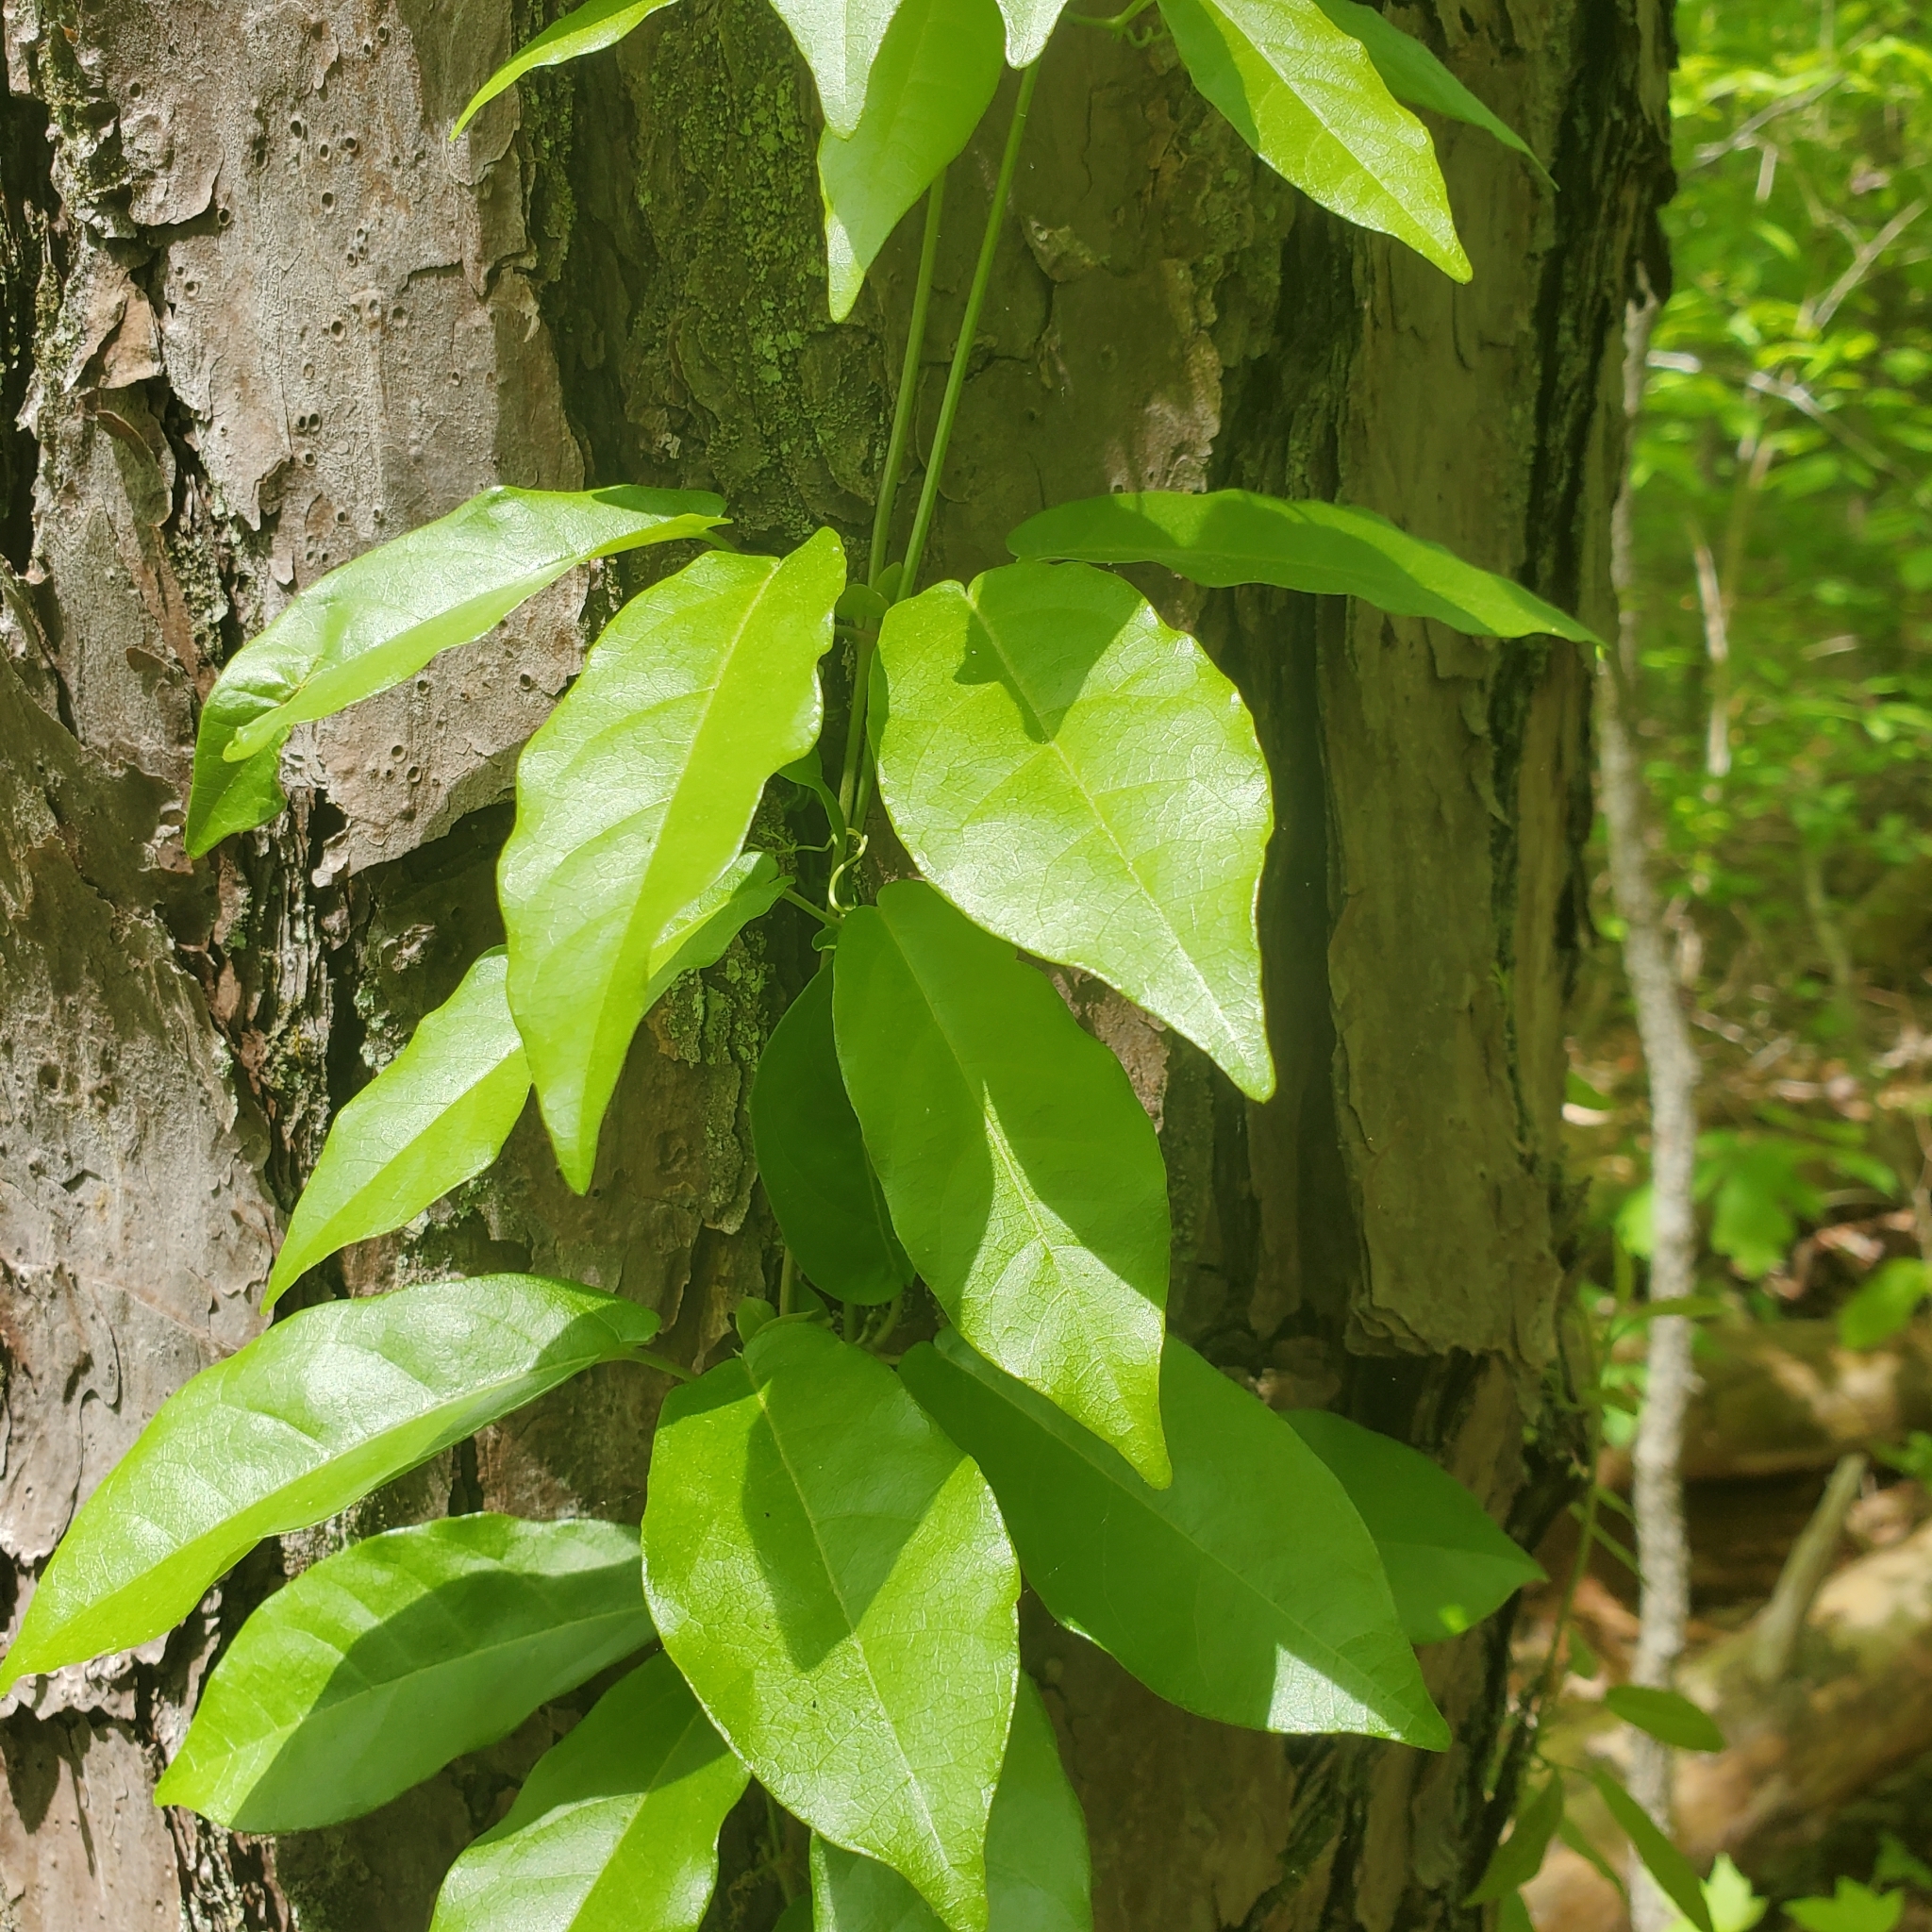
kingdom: Plantae
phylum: Tracheophyta
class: Magnoliopsida
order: Lamiales
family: Bignoniaceae
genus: Bignonia
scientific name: Bignonia capreolata
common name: Crossvine
